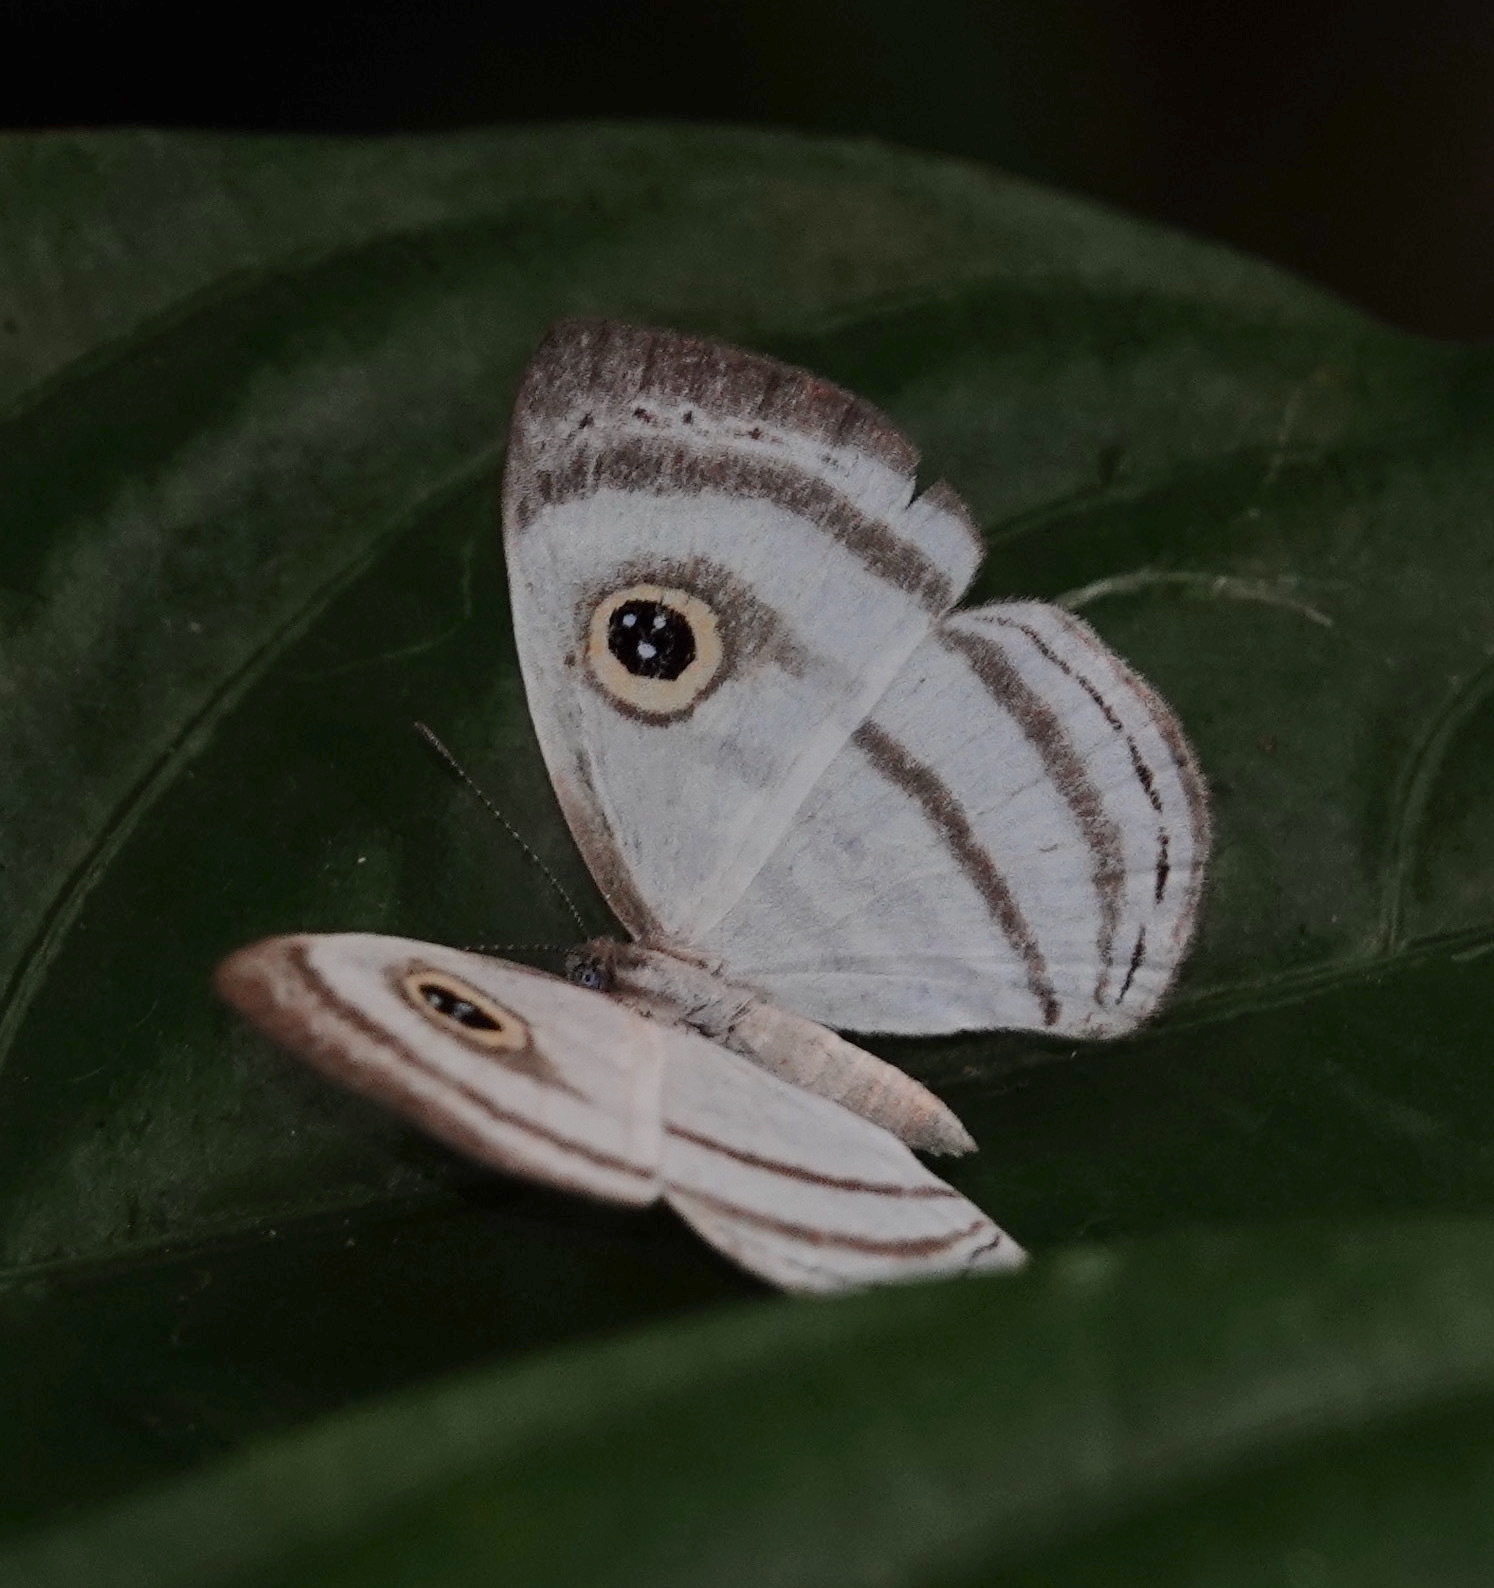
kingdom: Animalia
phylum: Arthropoda
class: Insecta
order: Lepidoptera
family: Riodinidae
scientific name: Riodinidae
